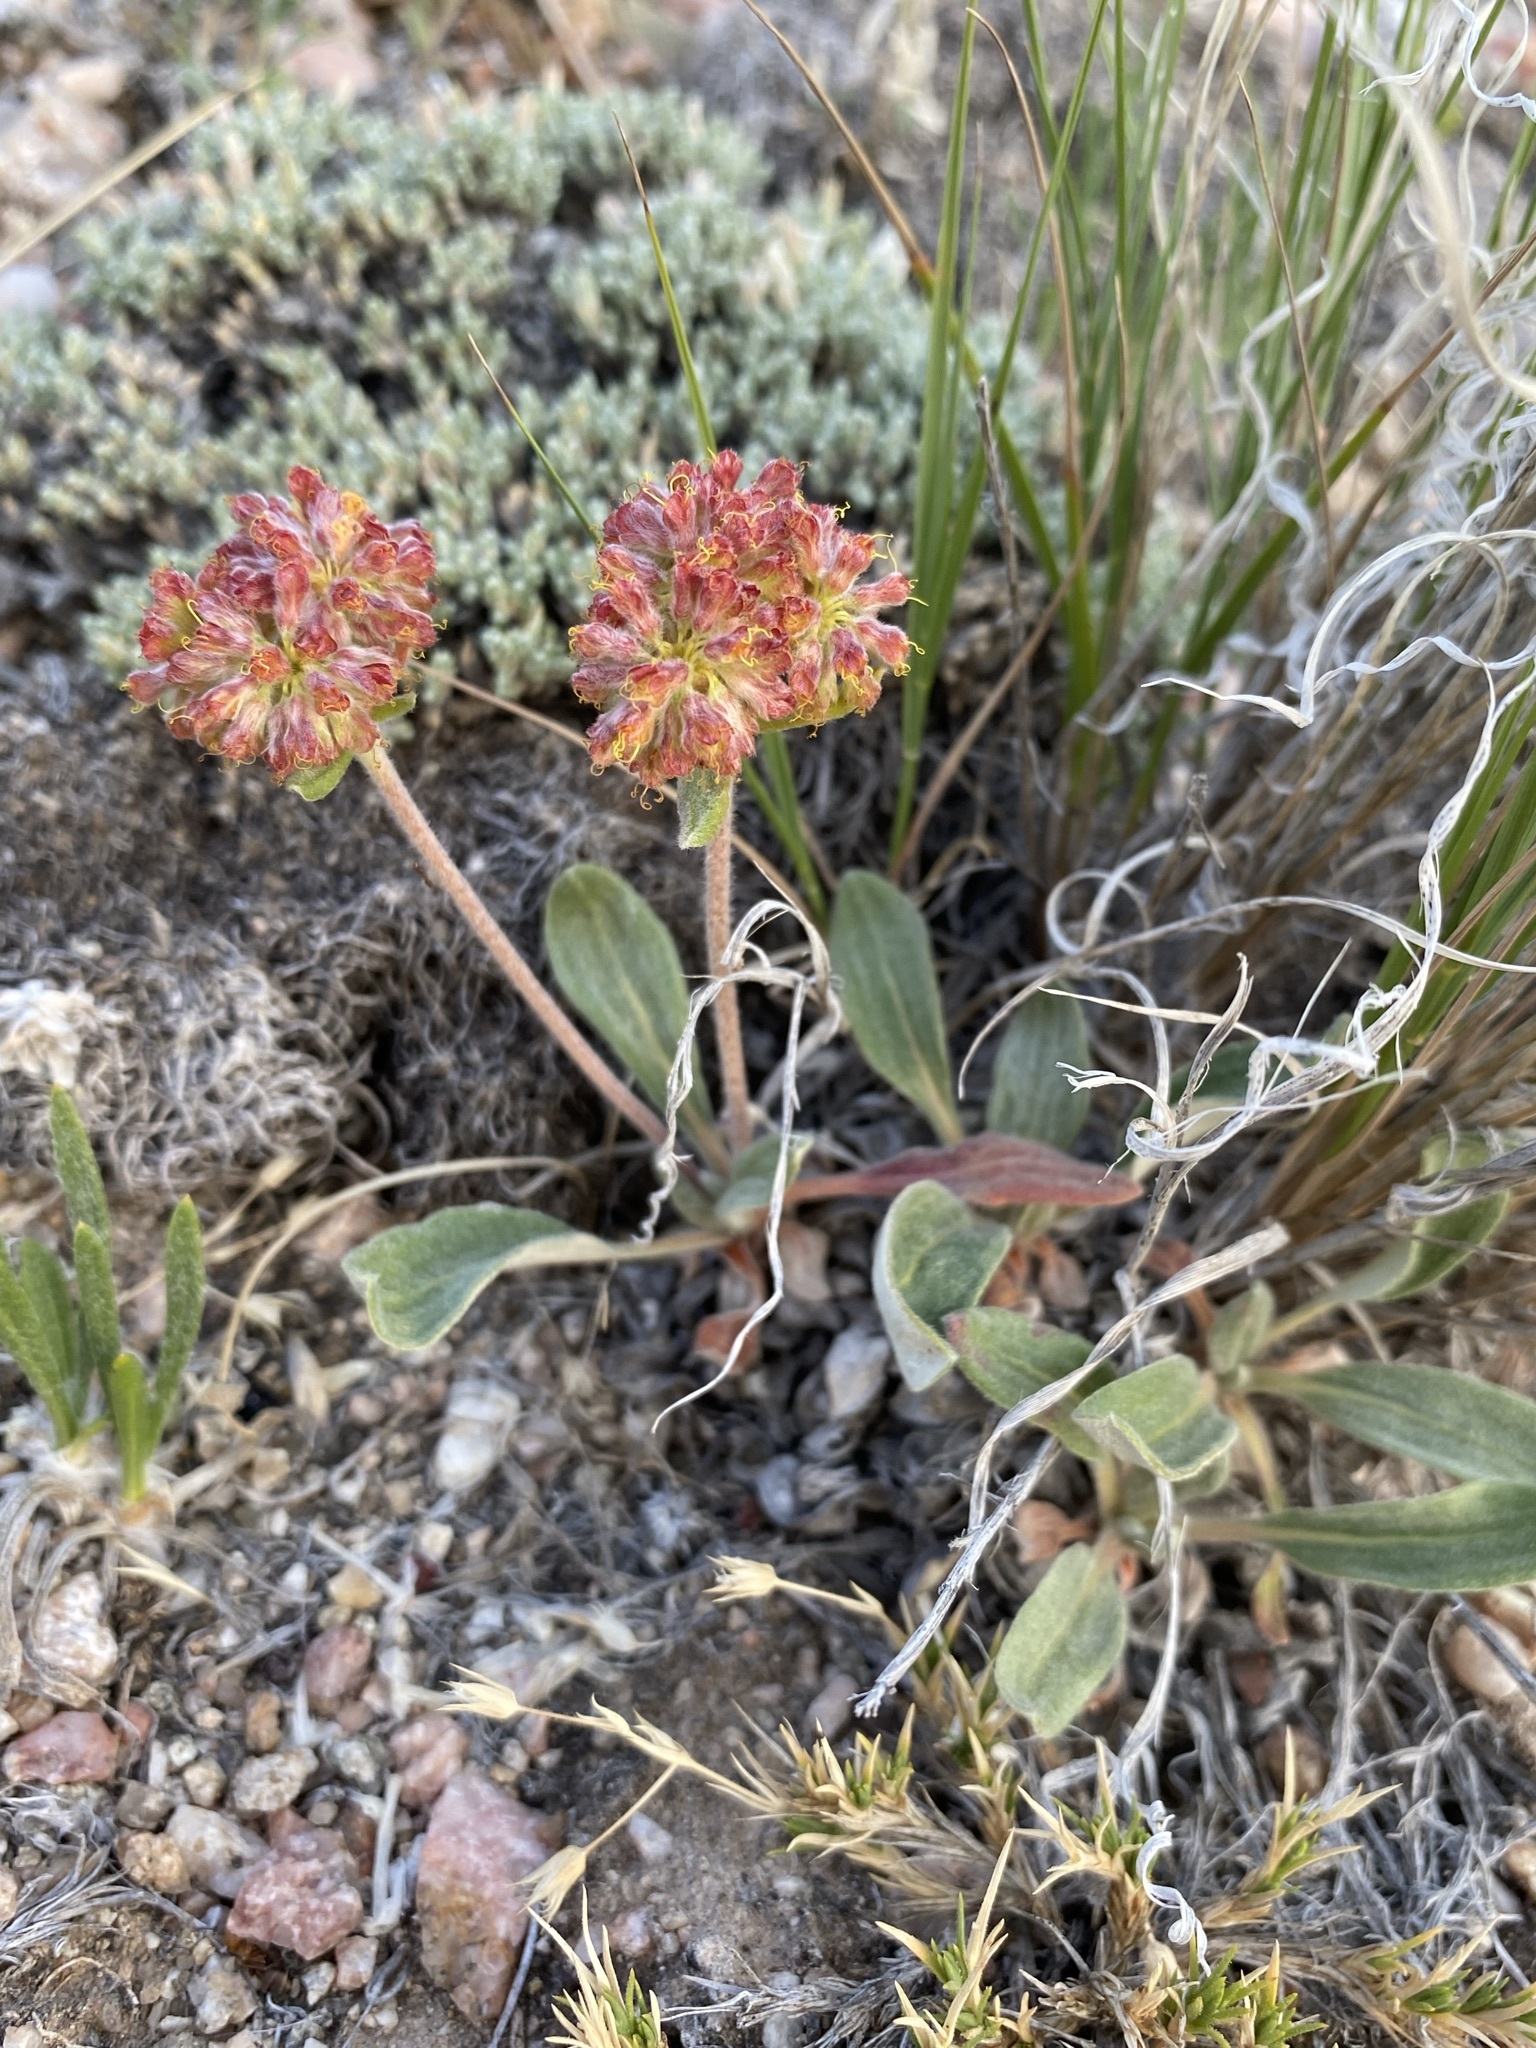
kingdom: Plantae
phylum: Tracheophyta
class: Magnoliopsida
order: Caryophyllales
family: Polygonaceae
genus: Eriogonum
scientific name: Eriogonum flavum
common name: Alpine golden wild buckwheat
